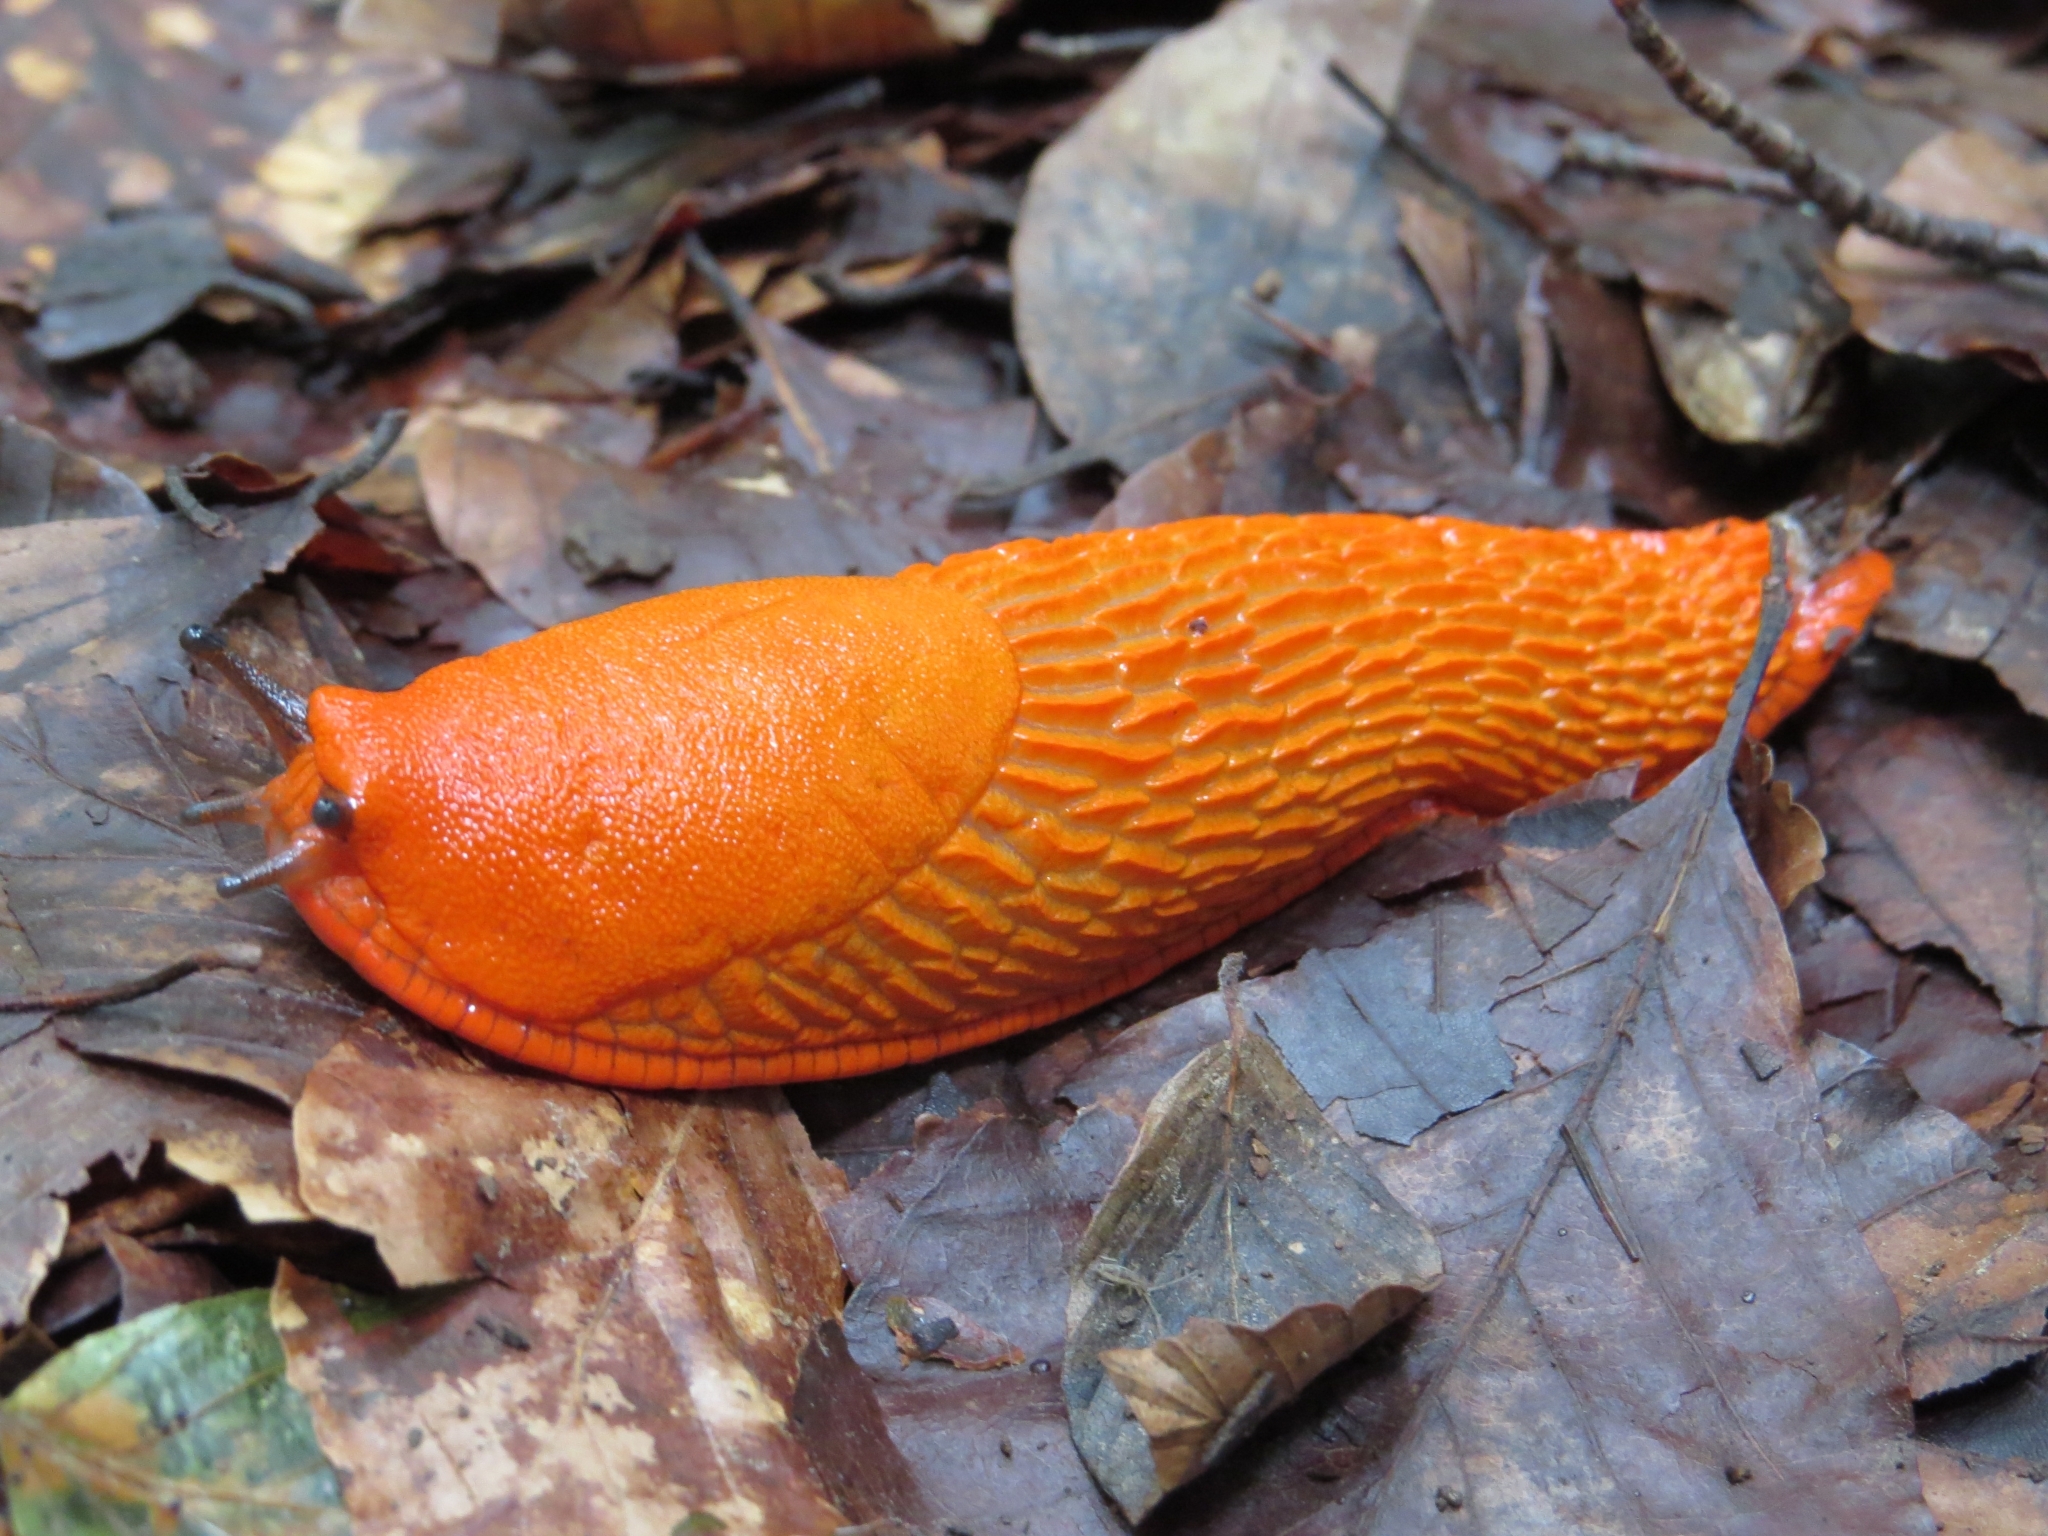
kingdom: Animalia
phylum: Mollusca
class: Gastropoda
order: Stylommatophora
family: Arionidae
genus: Arion
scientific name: Arion rufus
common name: Chocolate arion
